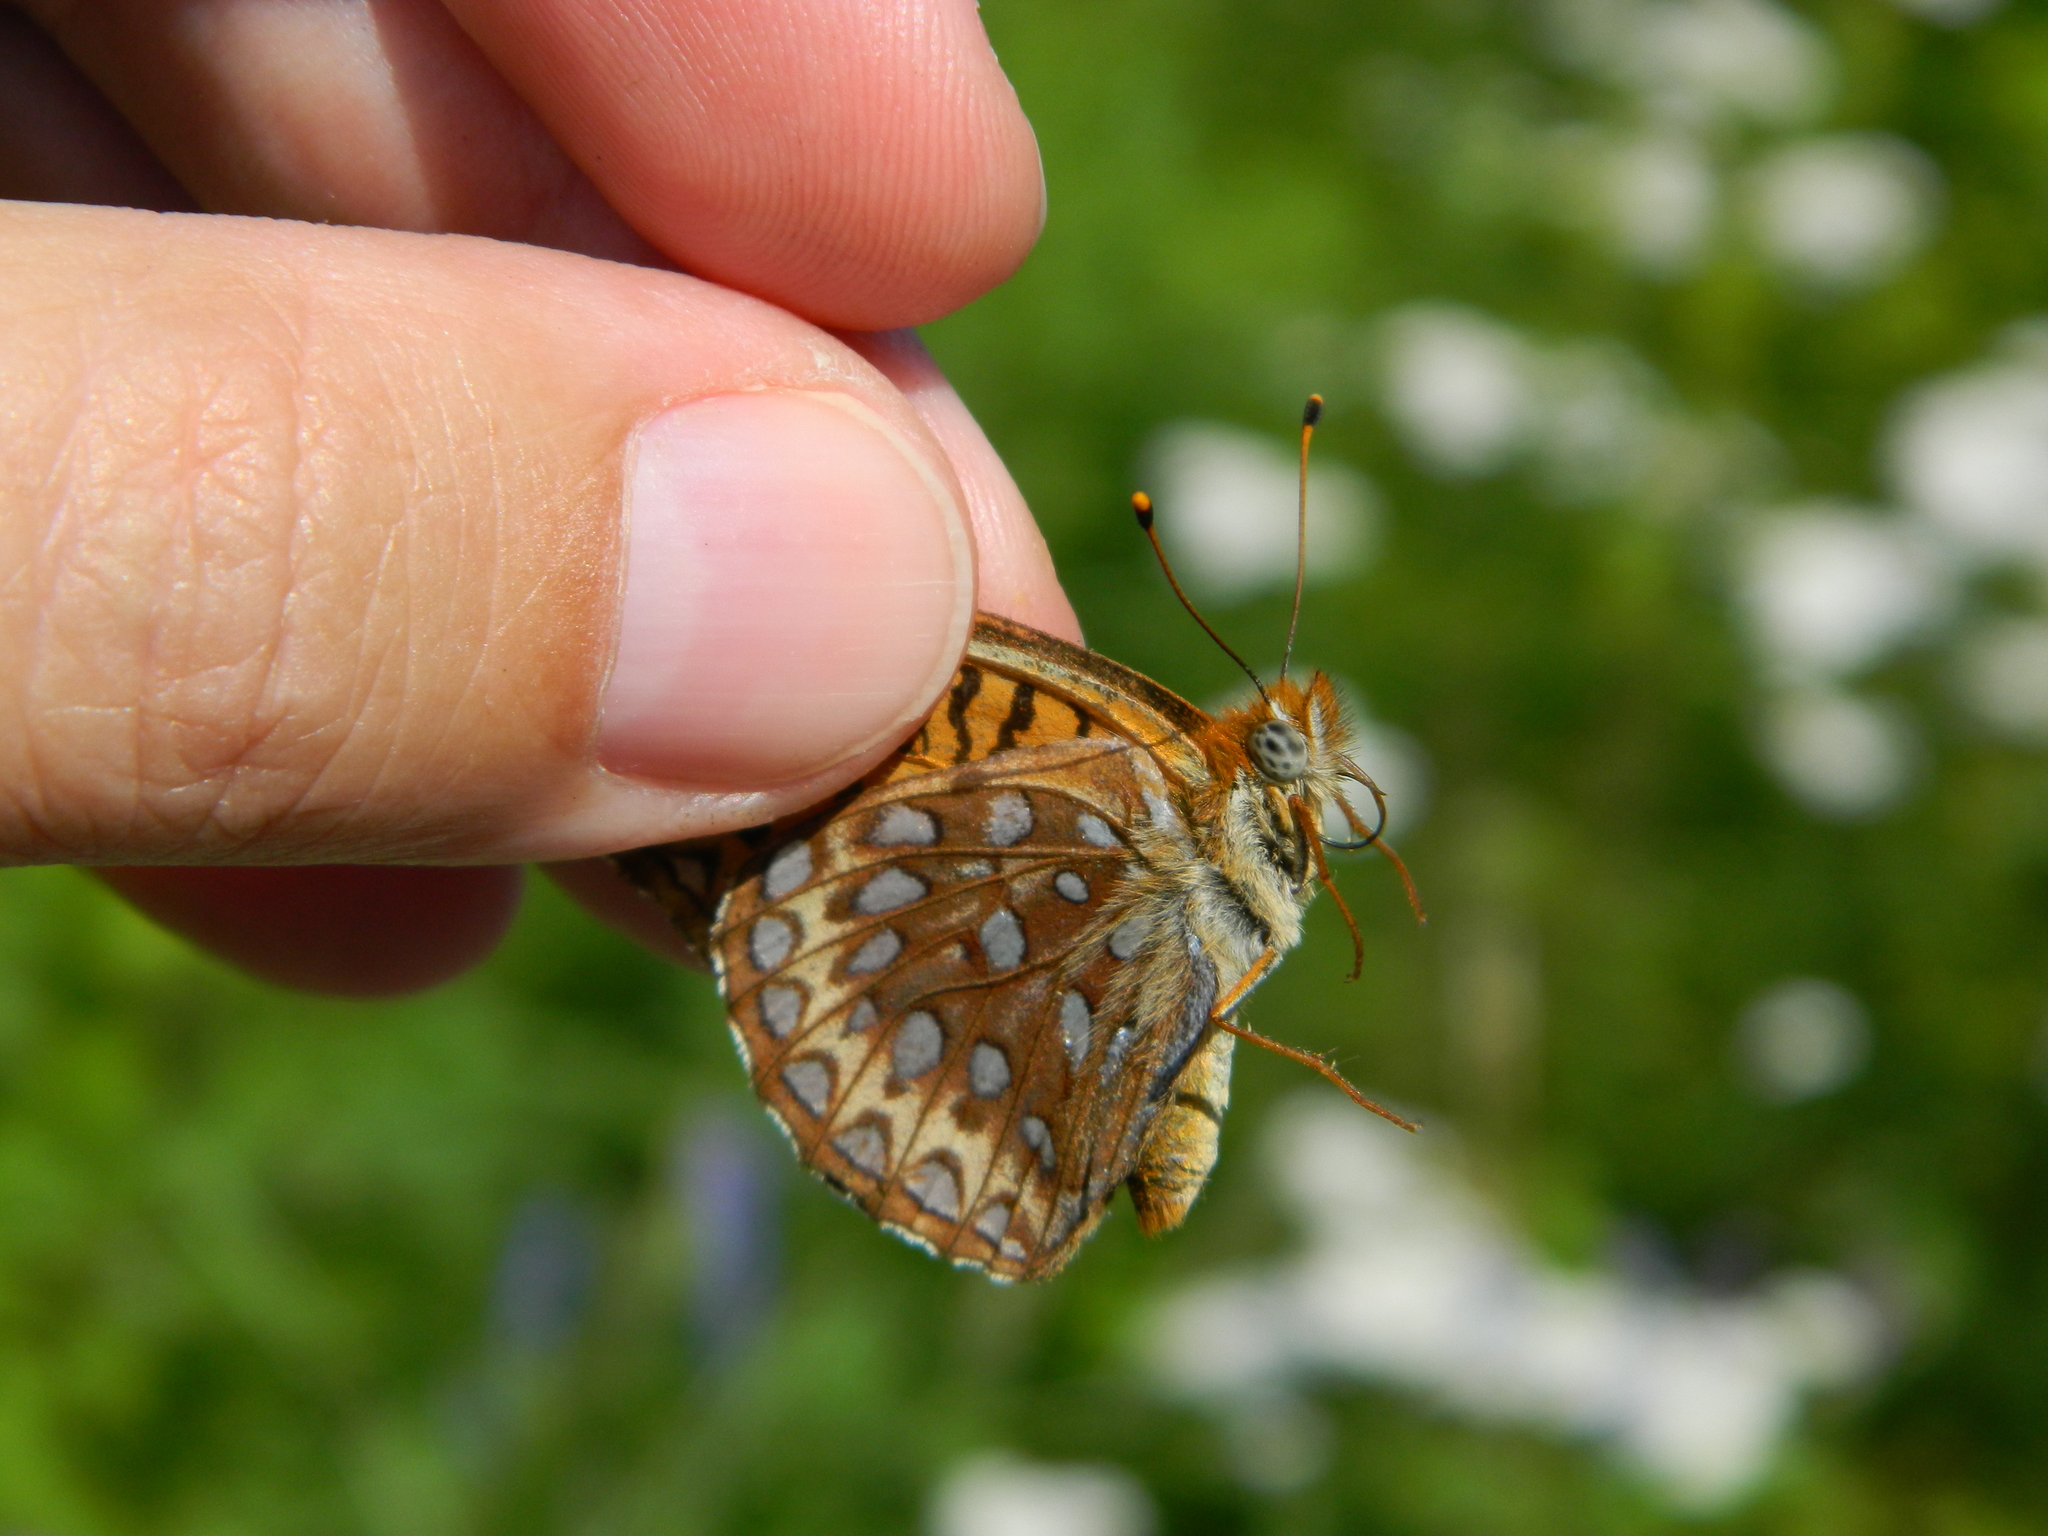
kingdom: Animalia
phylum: Arthropoda
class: Insecta
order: Lepidoptera
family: Nymphalidae
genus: Speyeria
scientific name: Speyeria atlantis
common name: Atlantis fritillary
